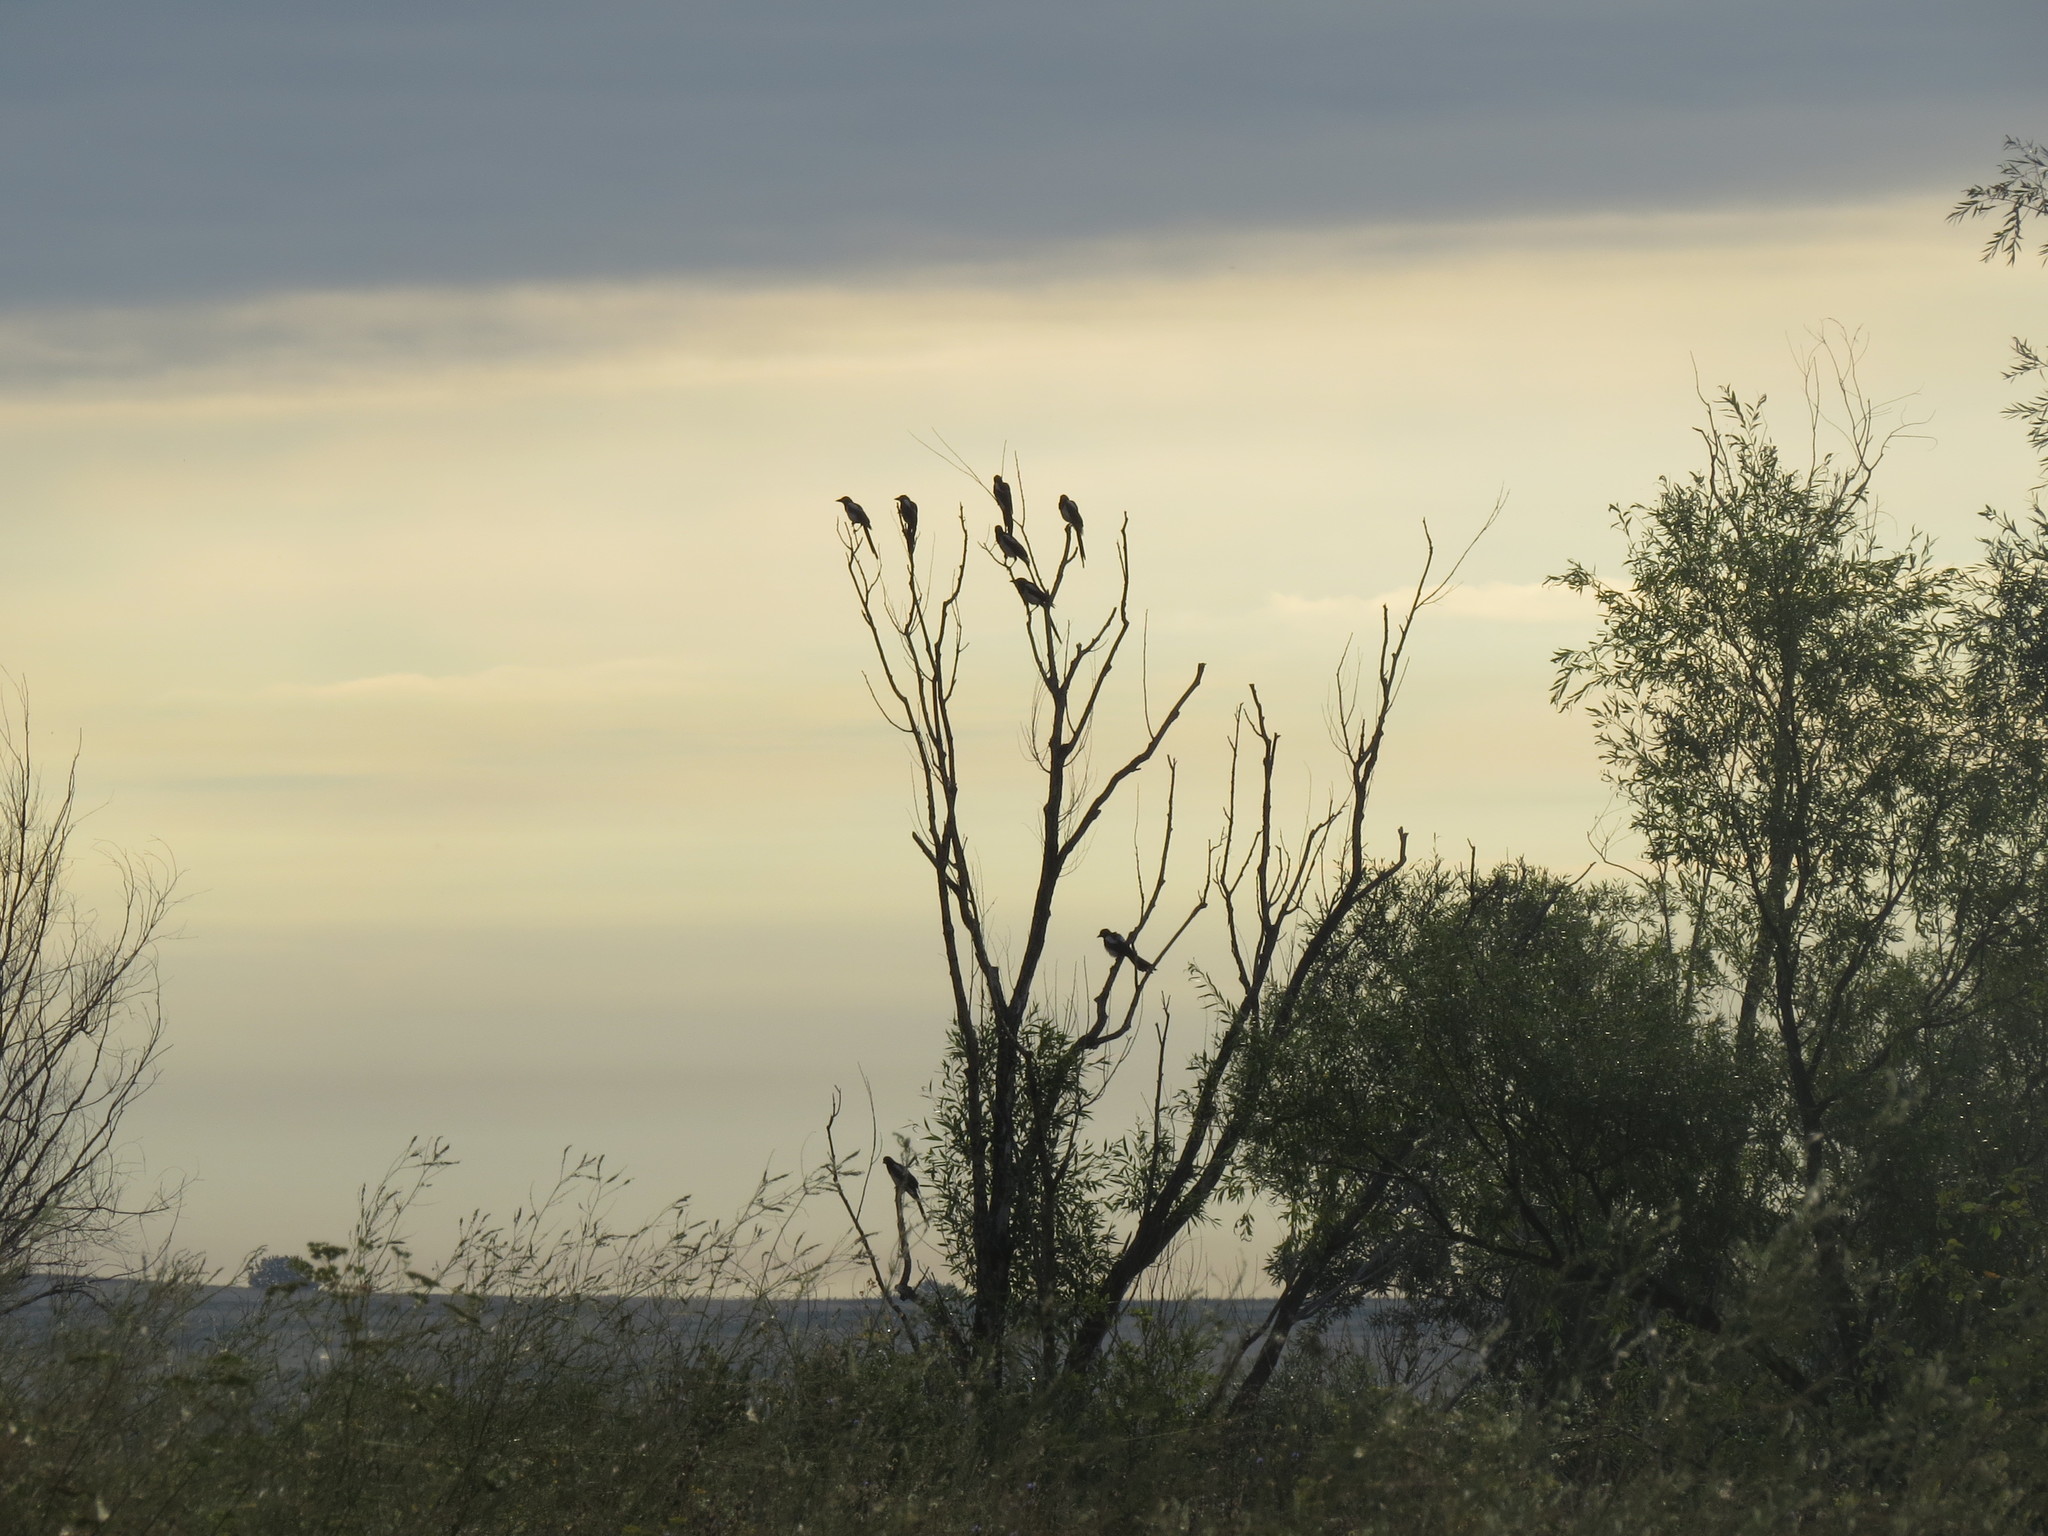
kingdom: Animalia
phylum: Chordata
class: Aves
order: Passeriformes
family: Corvidae
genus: Pica
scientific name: Pica pica
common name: Eurasian magpie
